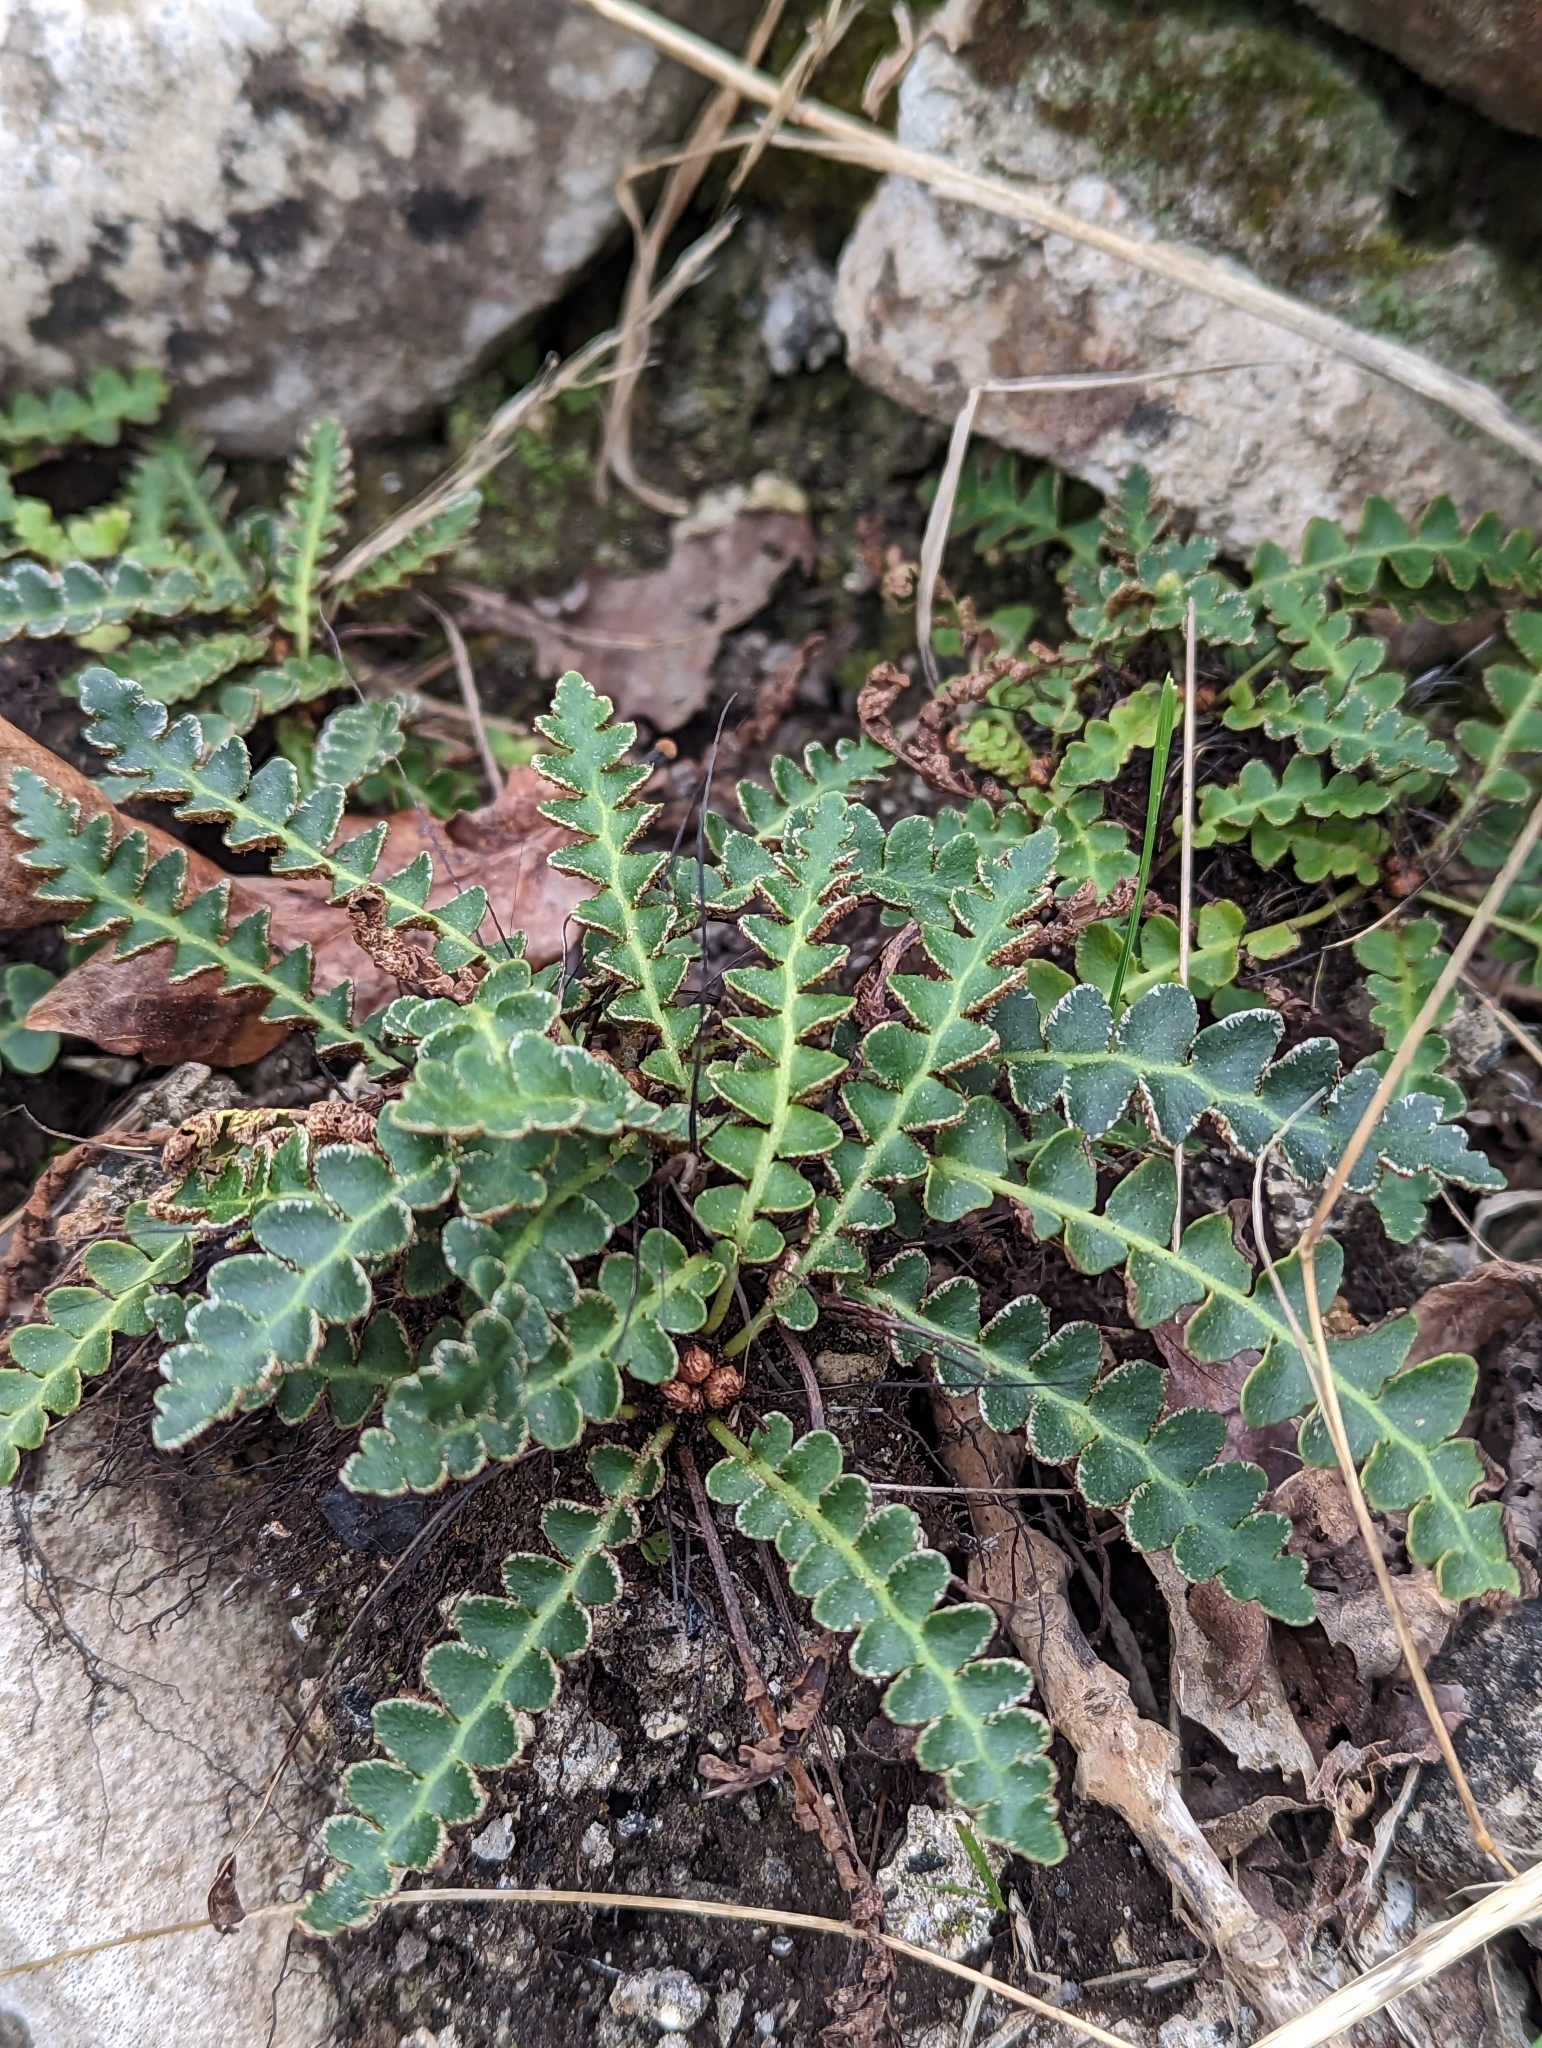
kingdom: Plantae
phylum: Tracheophyta
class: Polypodiopsida
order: Polypodiales
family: Aspleniaceae
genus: Asplenium
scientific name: Asplenium ceterach
